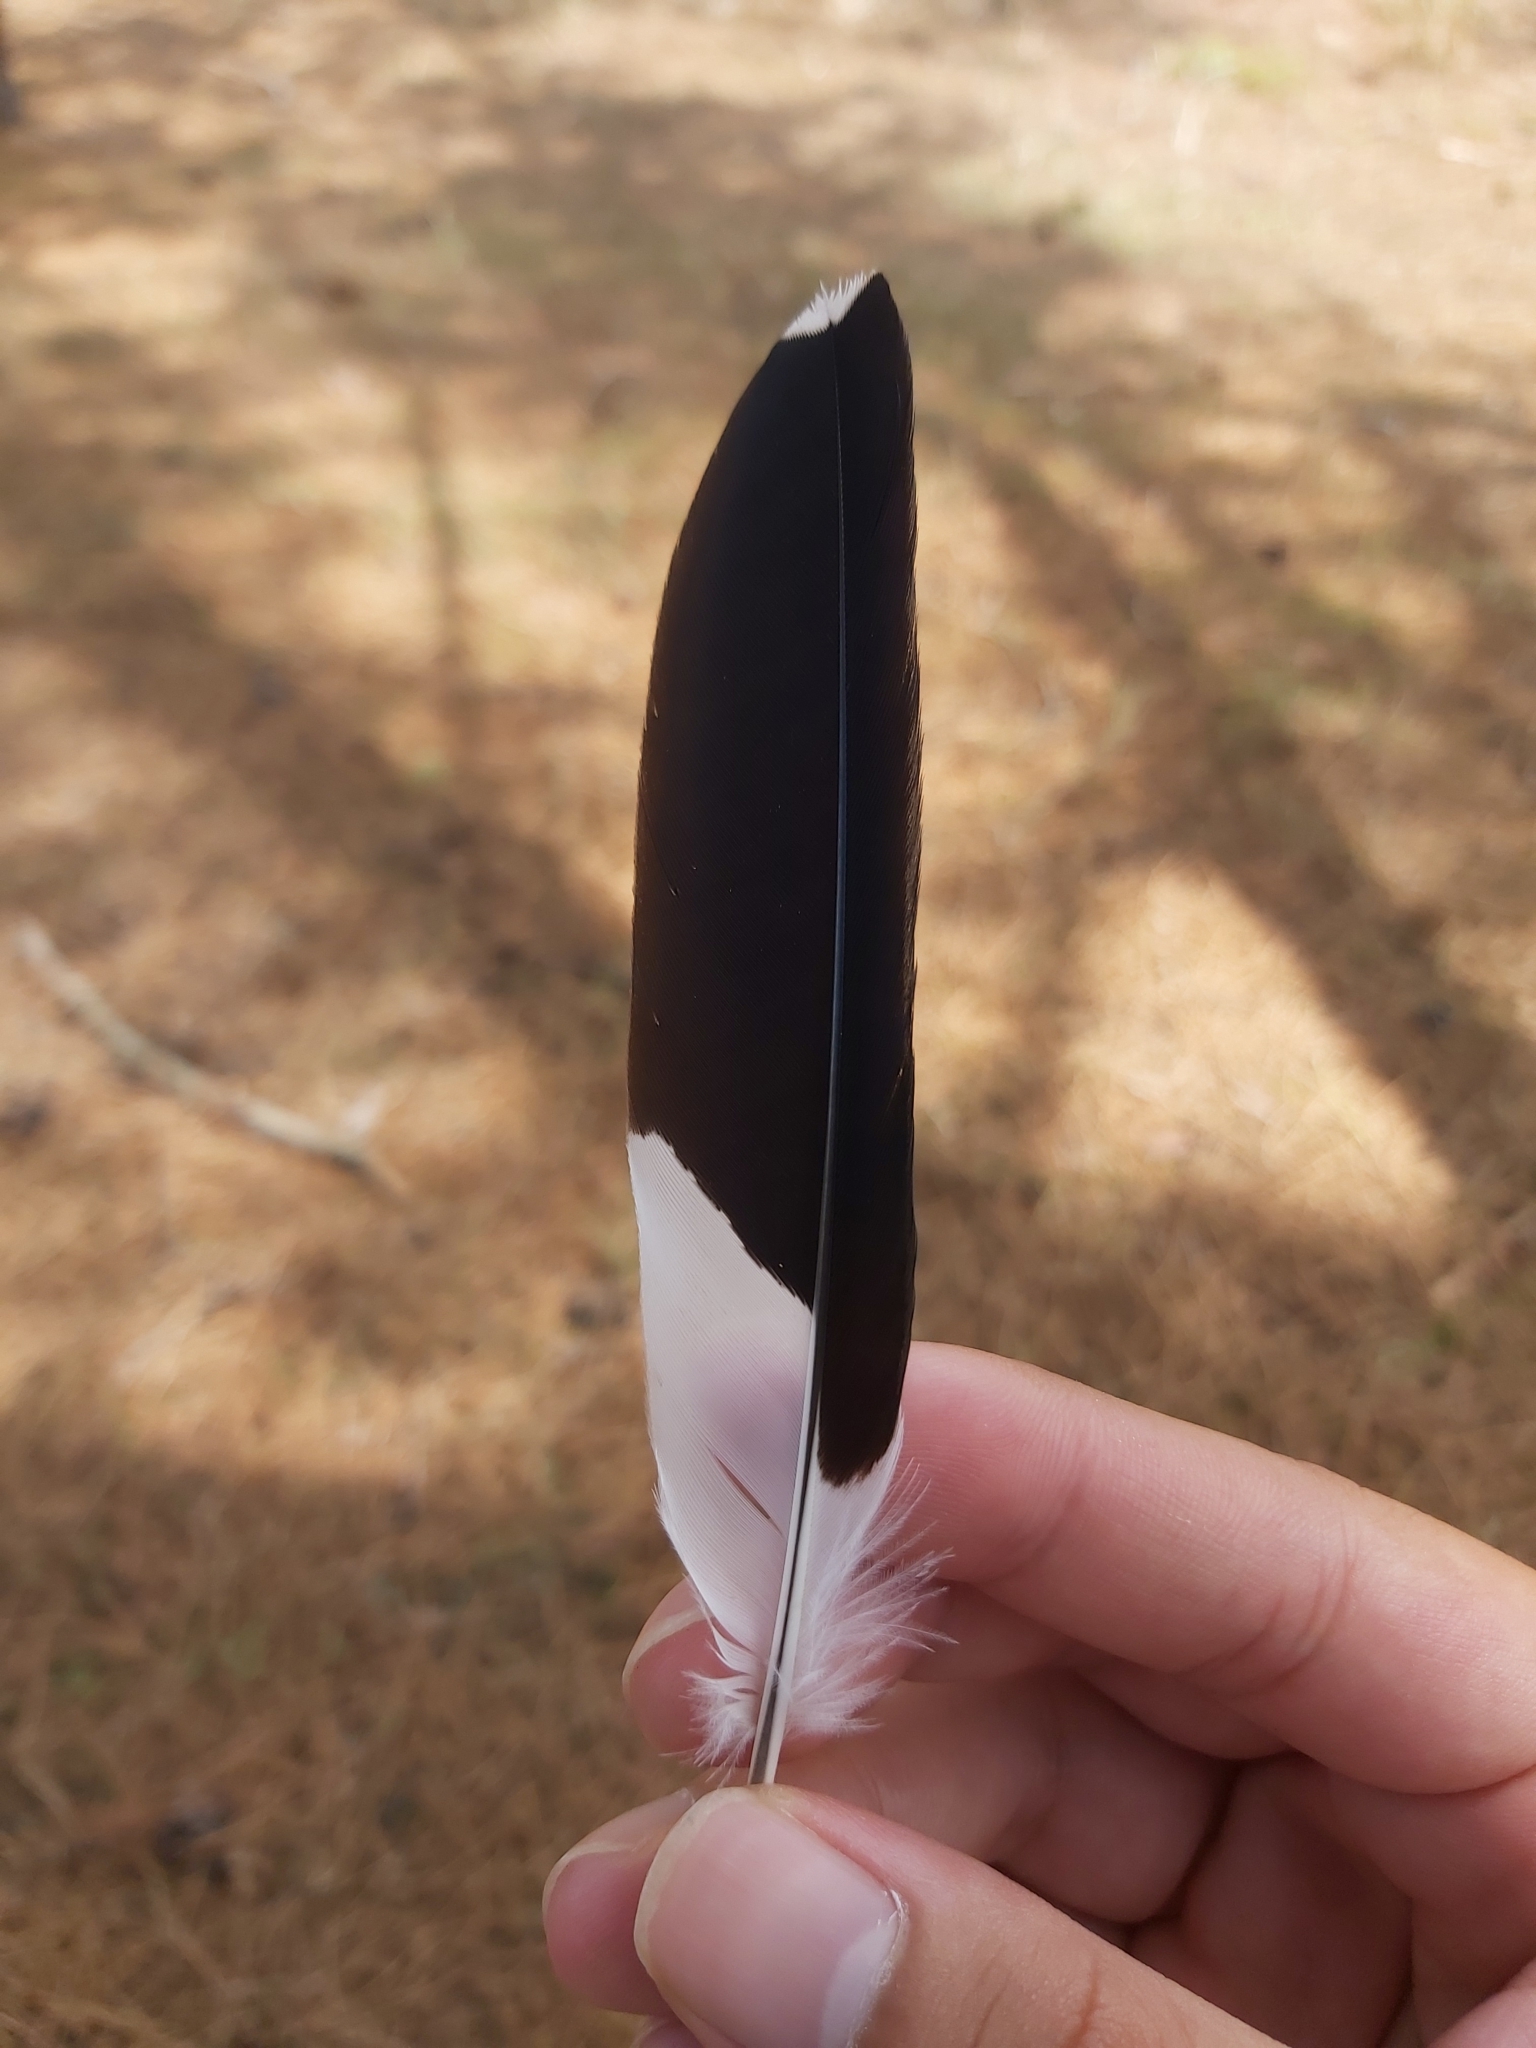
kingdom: Animalia
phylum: Chordata
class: Aves
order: Passeriformes
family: Monarchidae
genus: Grallina
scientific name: Grallina cyanoleuca
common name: Magpie-lark
